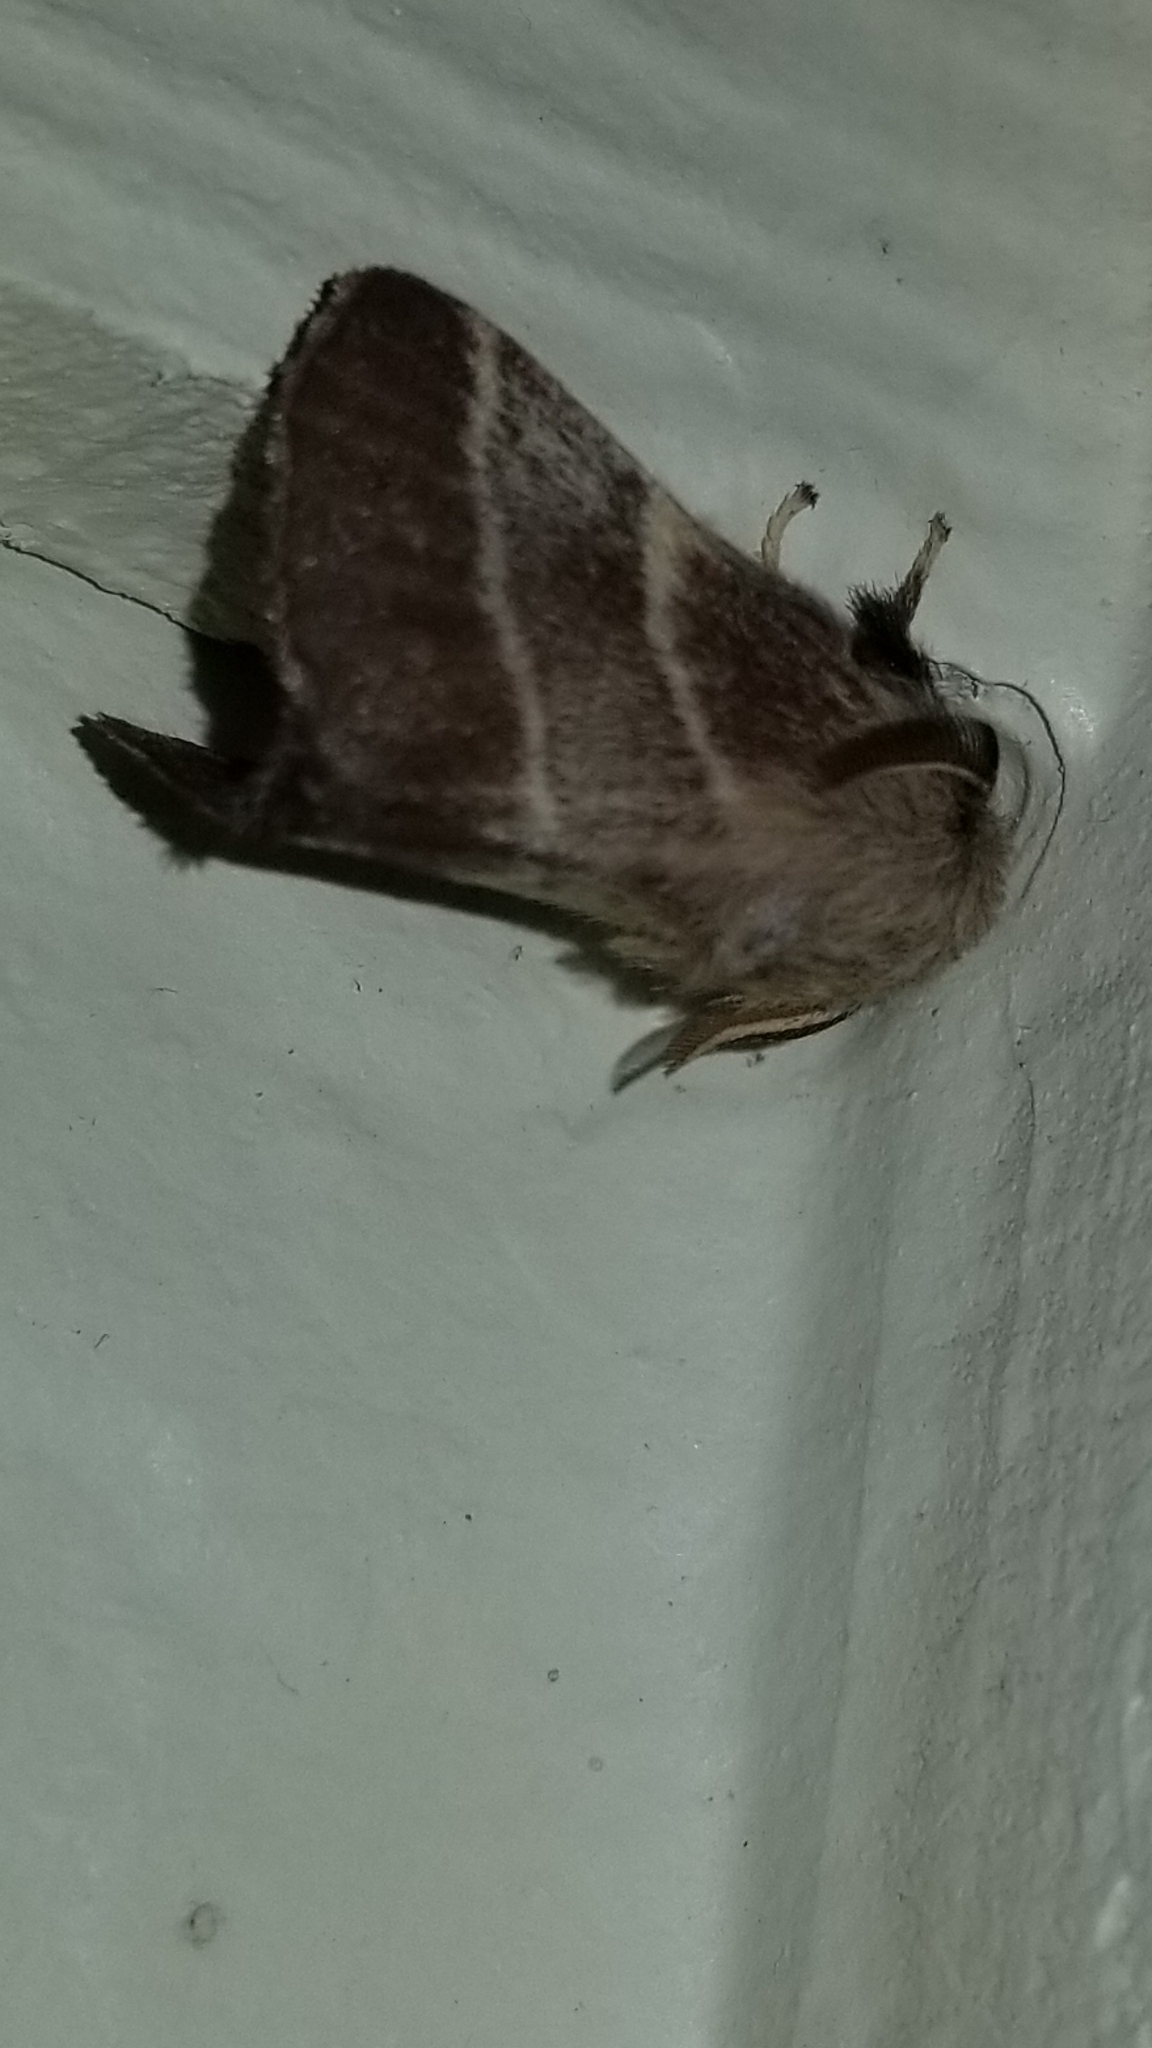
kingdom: Animalia
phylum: Arthropoda
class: Insecta
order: Lepidoptera
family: Lasiocampidae
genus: Malacosoma
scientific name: Malacosoma americana
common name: Eastern tent caterpillar moth
